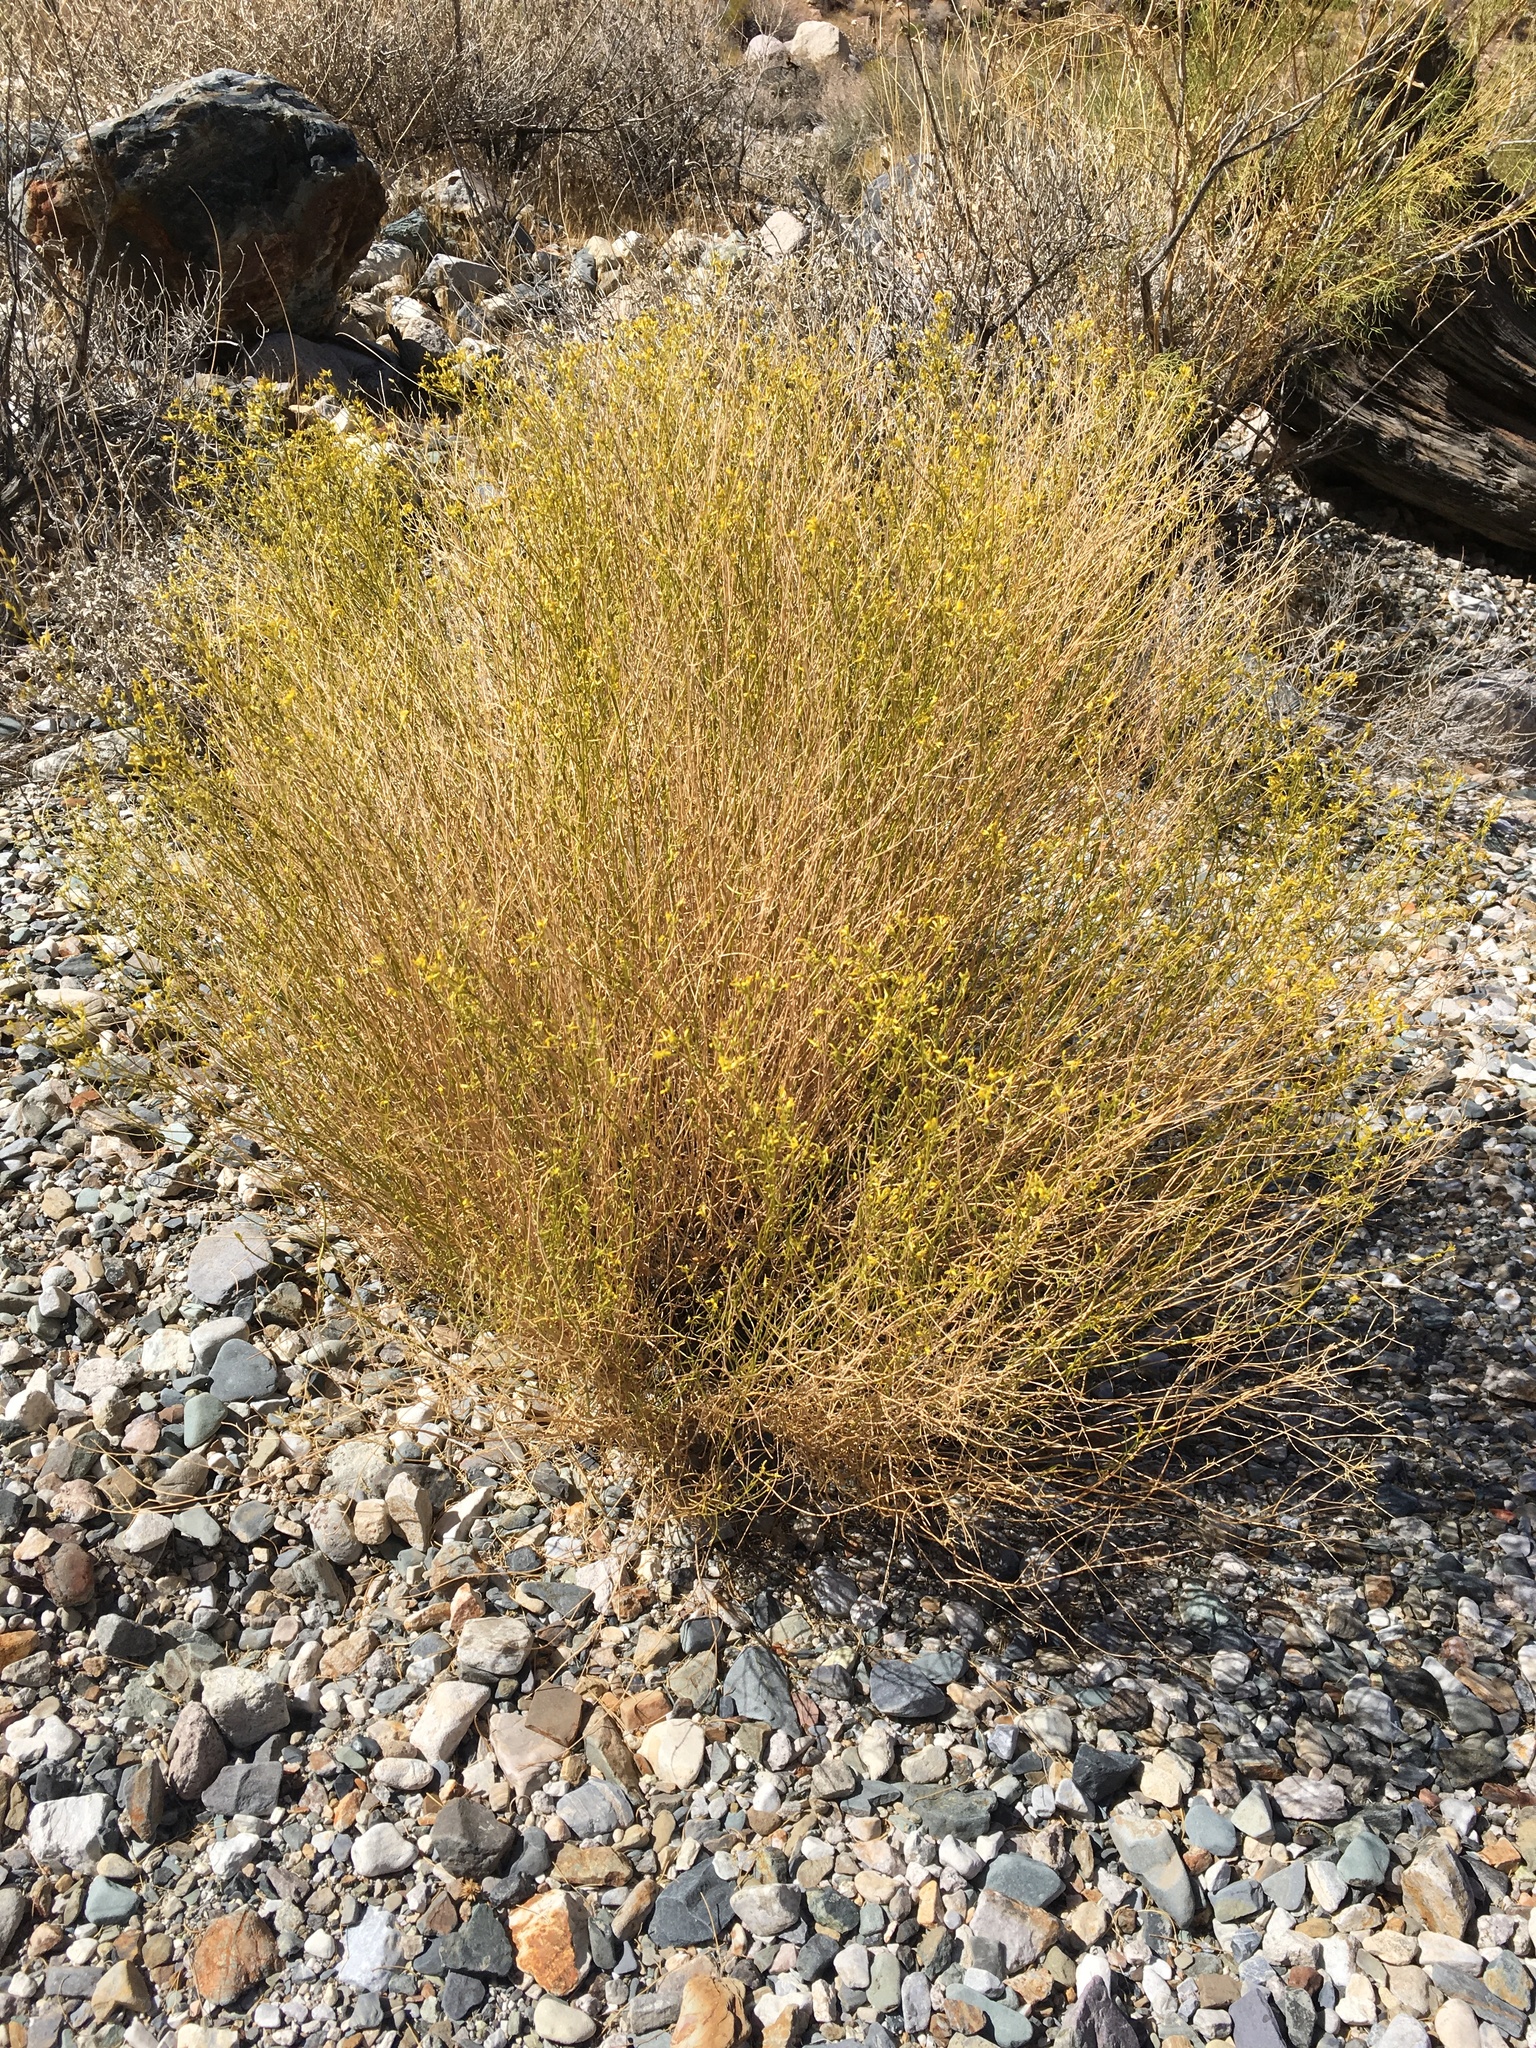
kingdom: Plantae
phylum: Tracheophyta
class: Magnoliopsida
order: Asterales
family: Asteraceae
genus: Gutierrezia
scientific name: Gutierrezia microcephala
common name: Thread snakeweed
